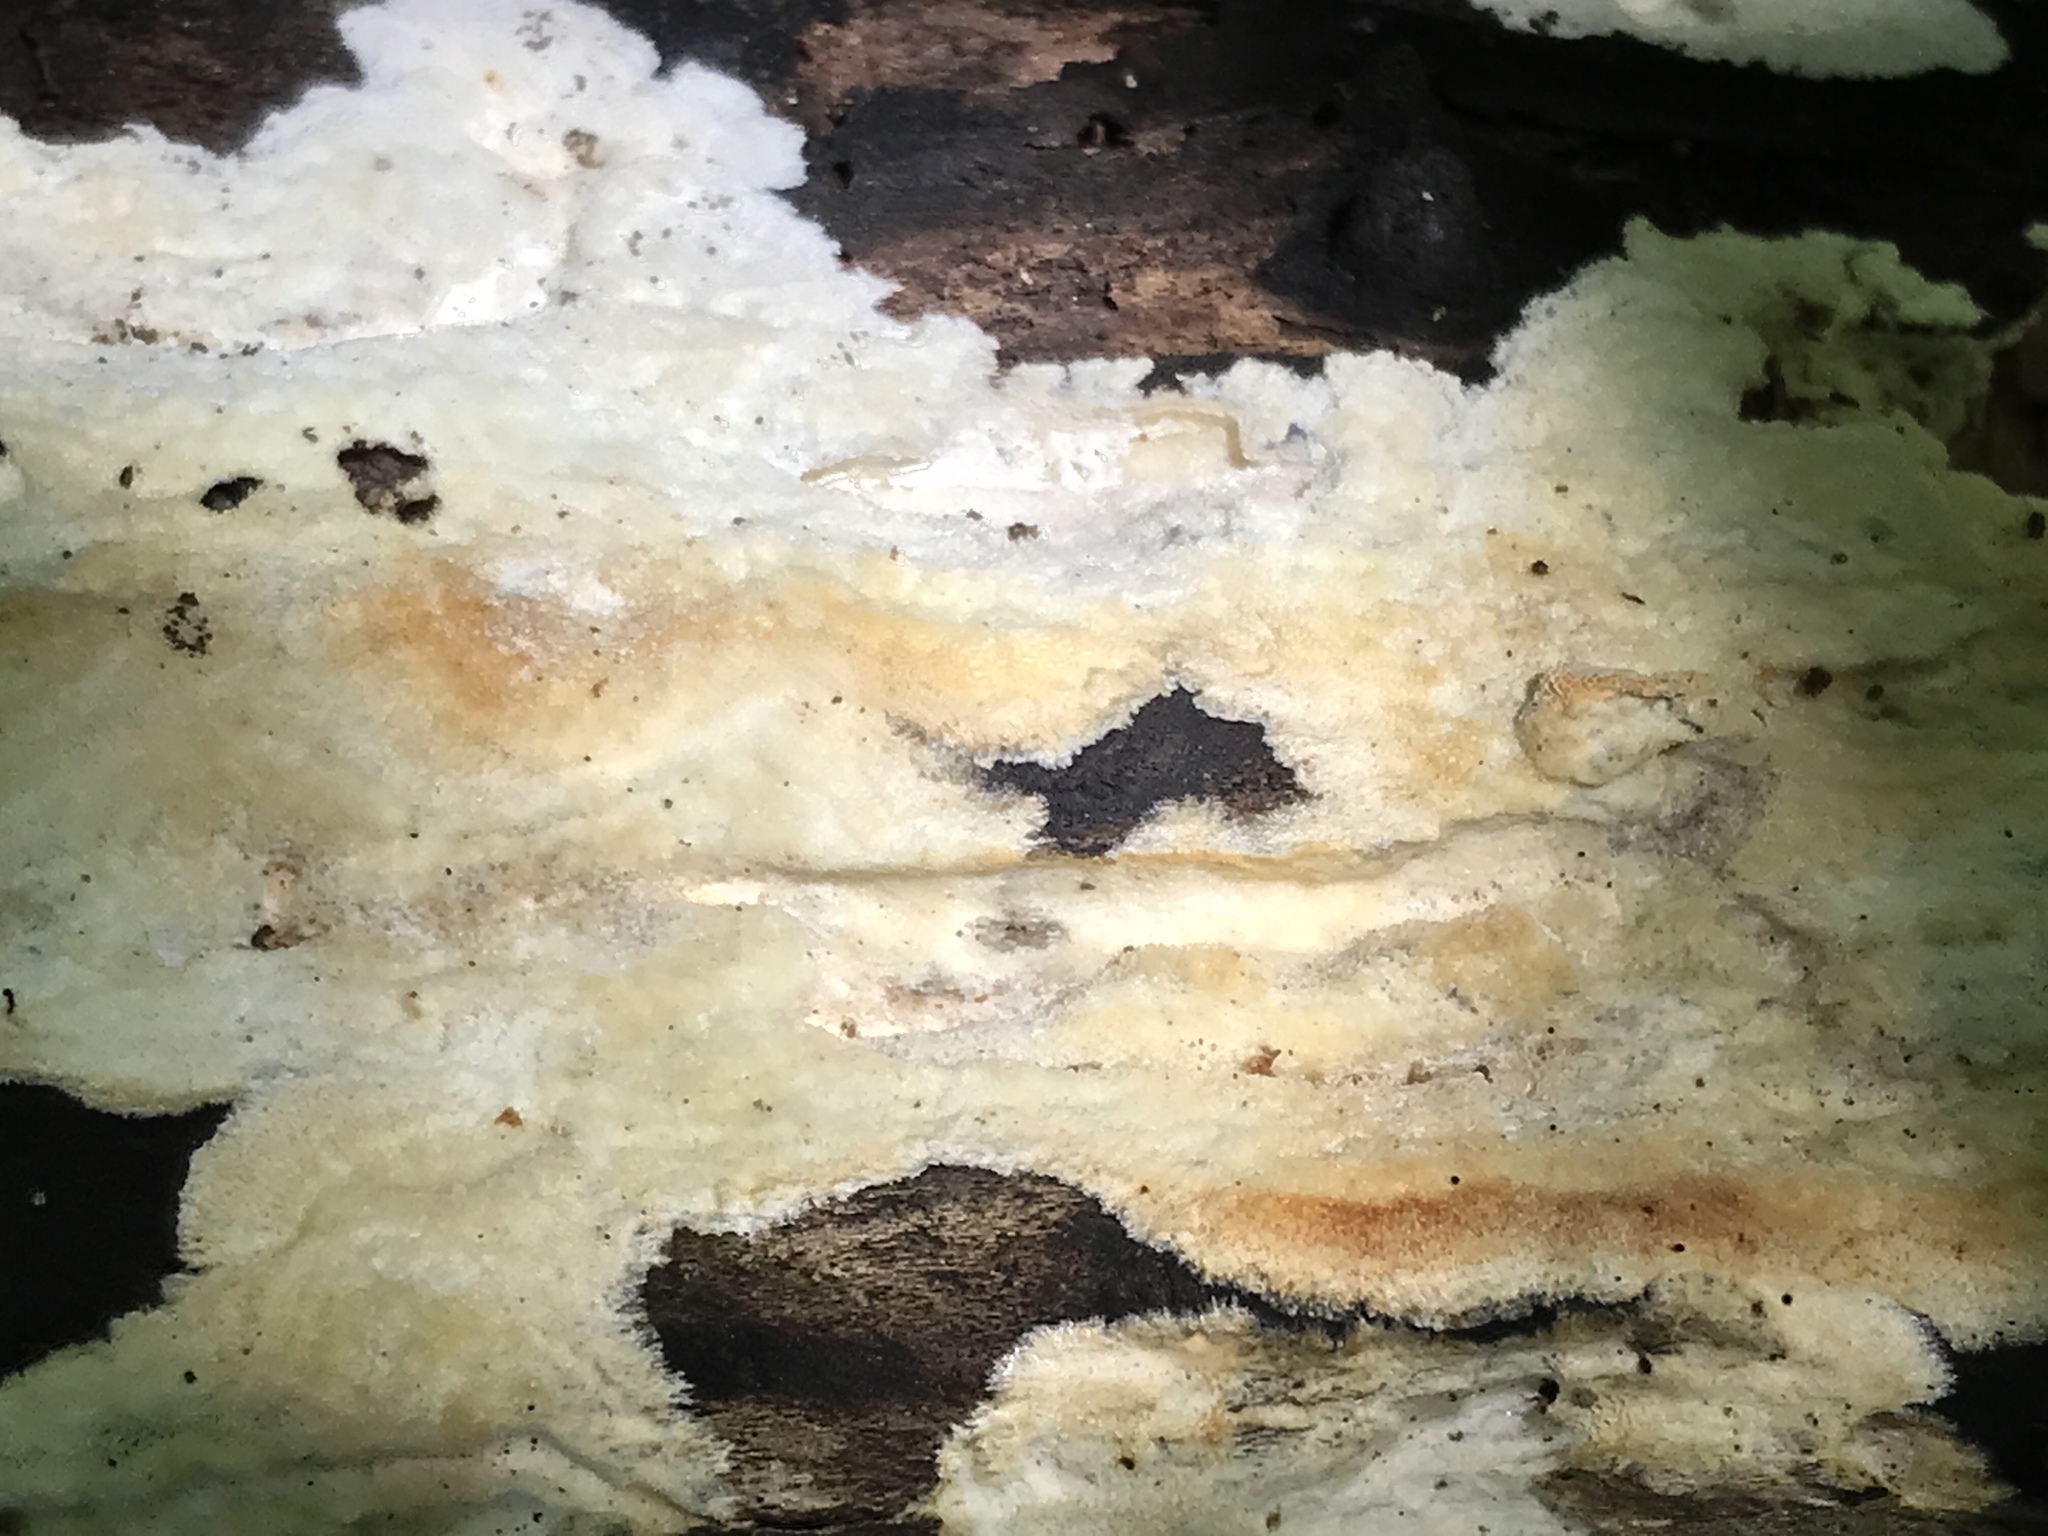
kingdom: Fungi
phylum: Basidiomycota
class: Agaricomycetes
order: Polyporales
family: Polyporaceae
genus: Perenniporia
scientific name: Perenniporia bostonensis
